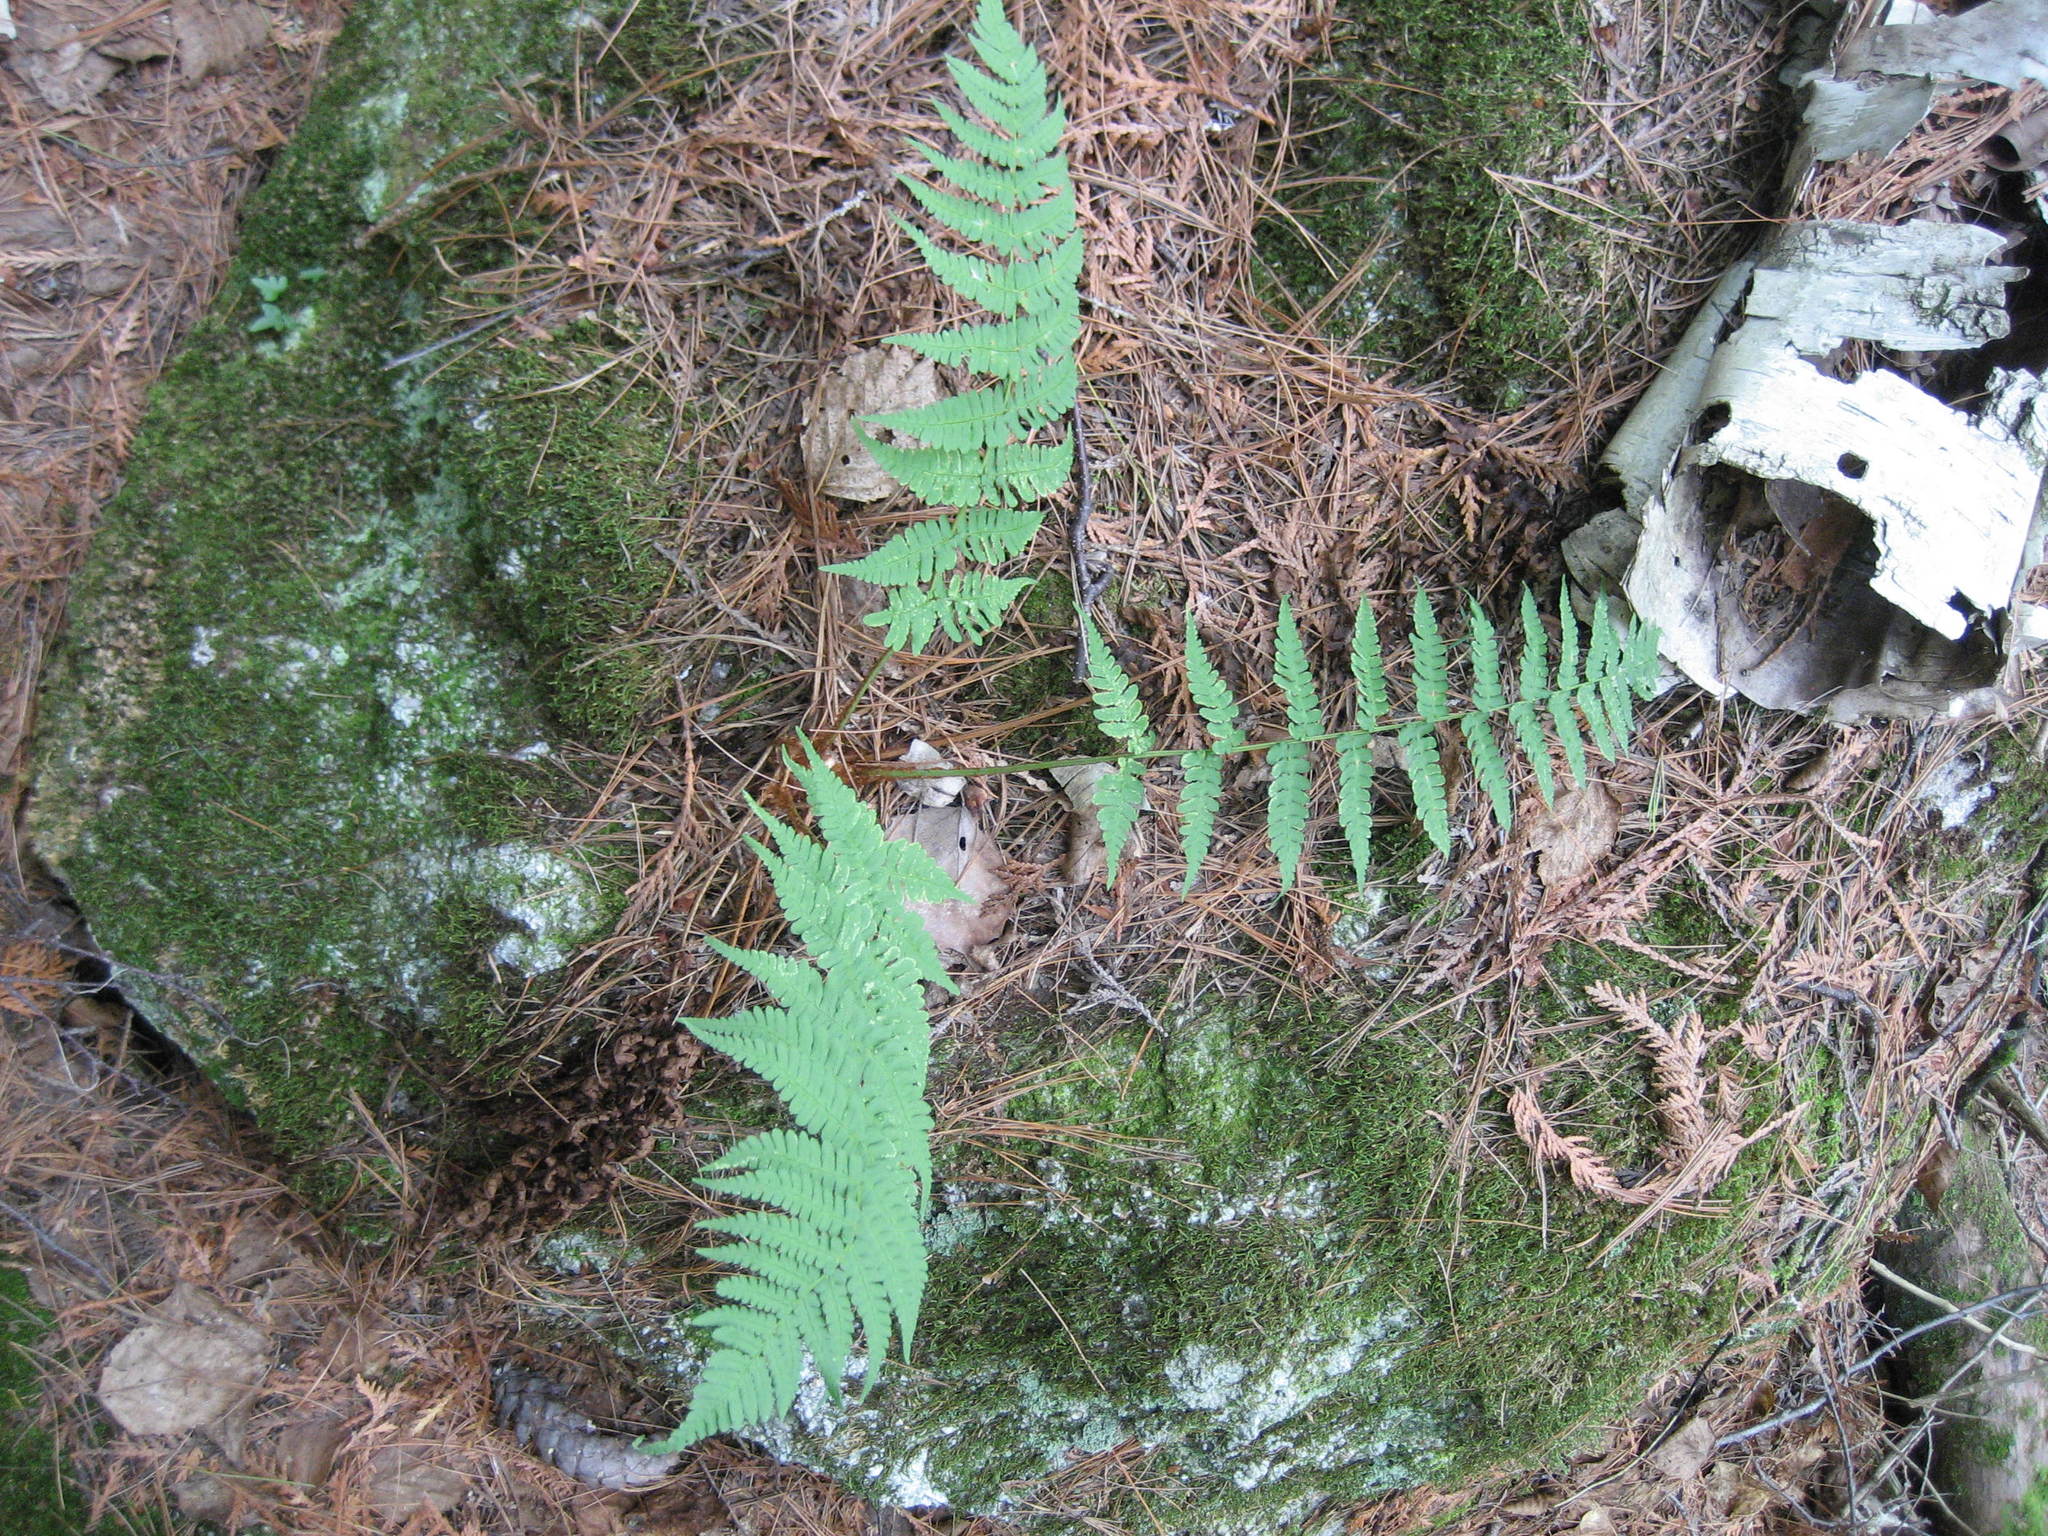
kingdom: Plantae
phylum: Tracheophyta
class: Polypodiopsida
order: Polypodiales
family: Dryopteridaceae
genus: Dryopteris
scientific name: Dryopteris marginalis
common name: Marginal wood fern
